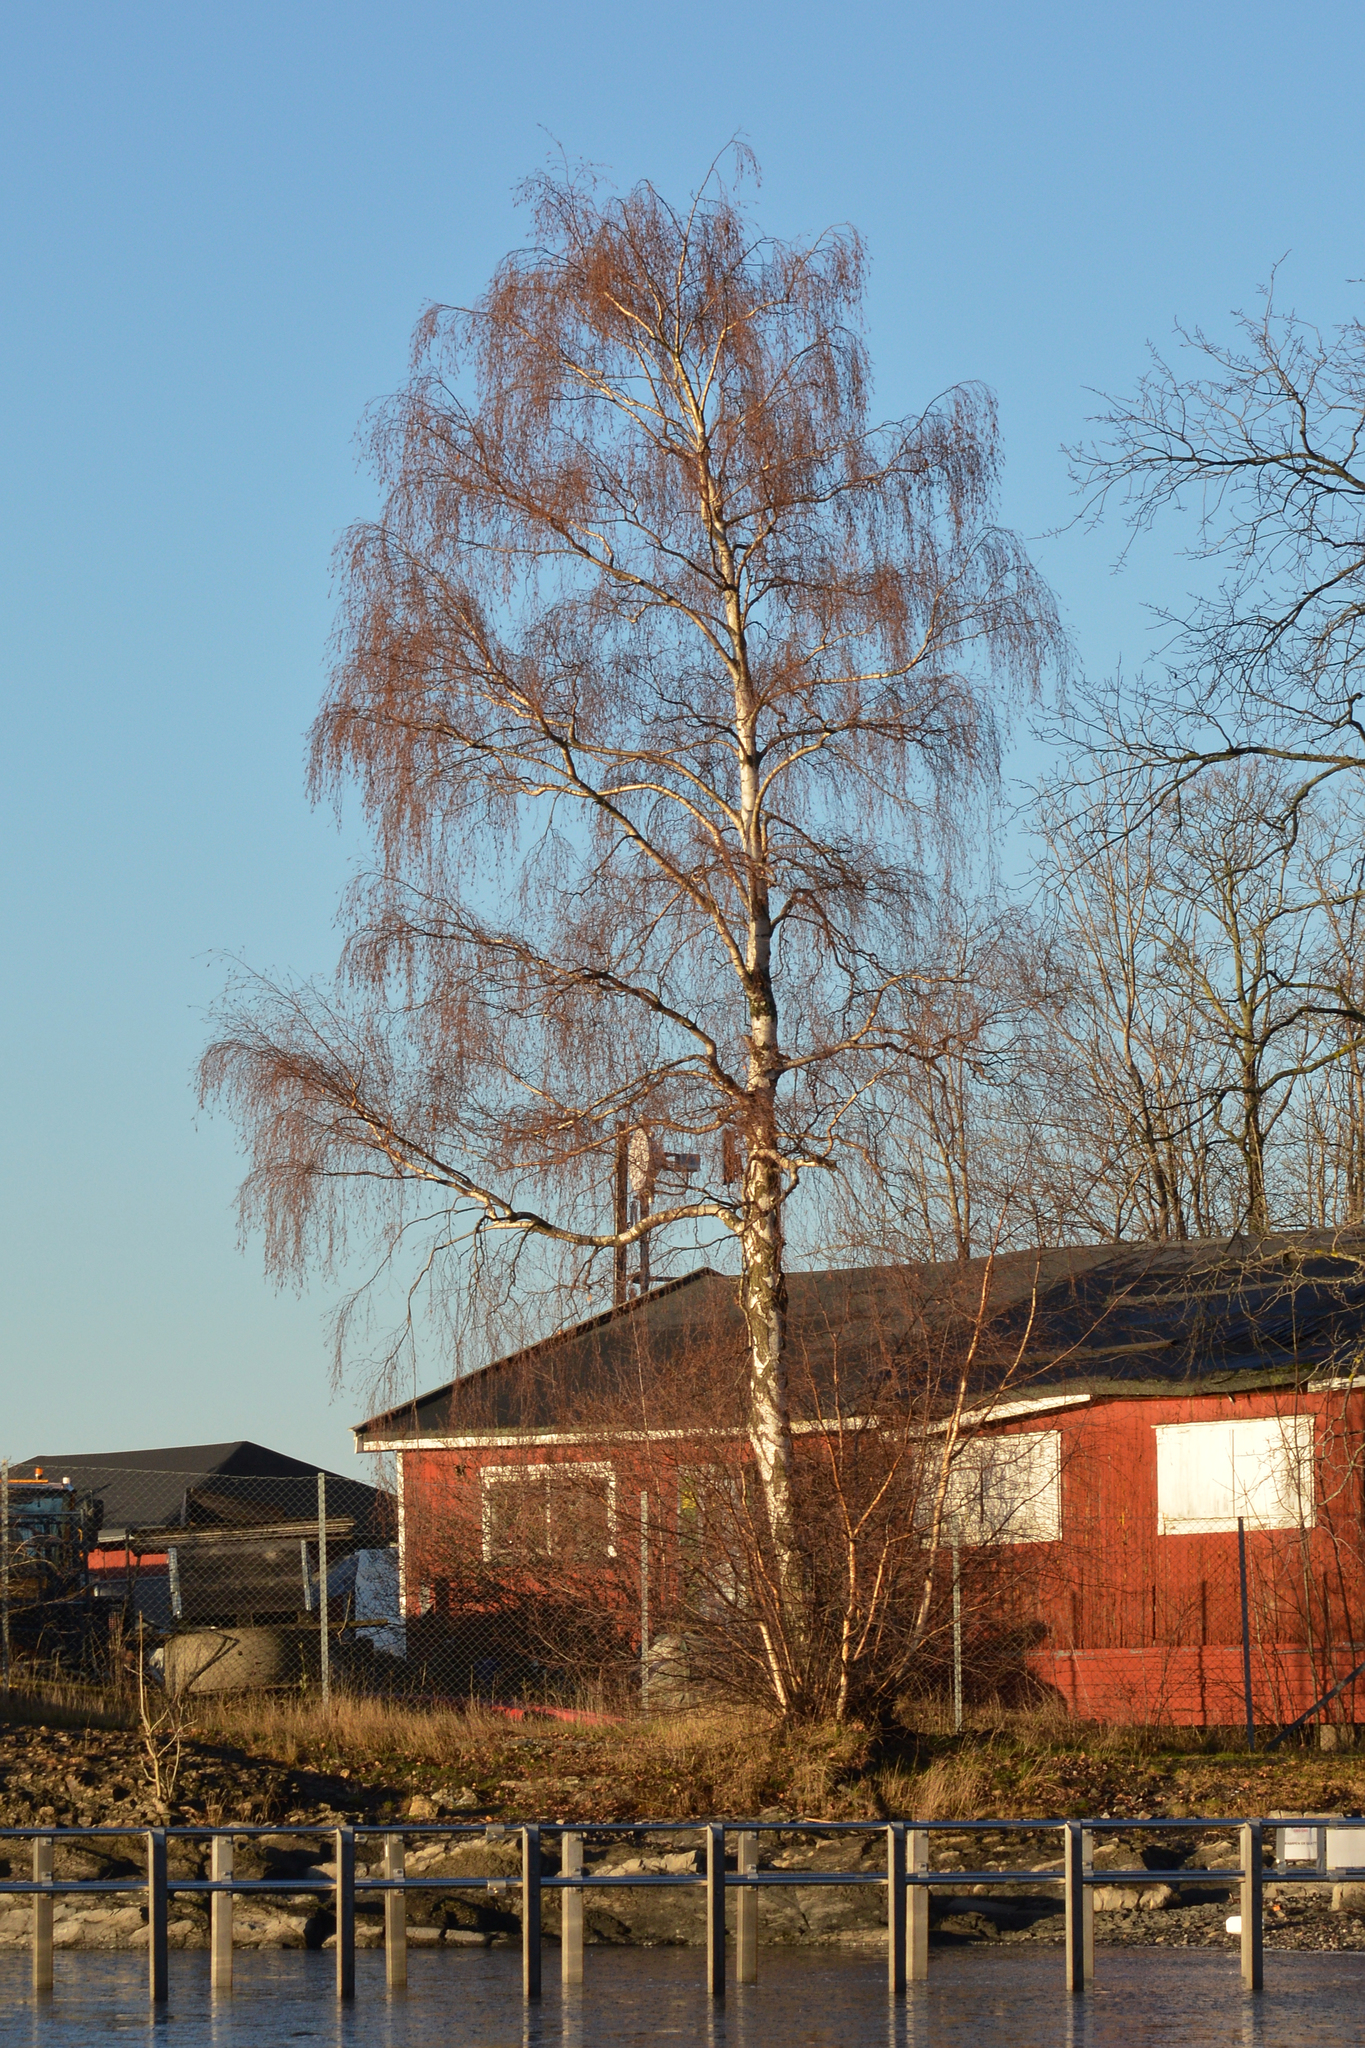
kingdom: Plantae
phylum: Tracheophyta
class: Magnoliopsida
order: Fagales
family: Betulaceae
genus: Betula
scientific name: Betula pendula
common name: Silver birch
